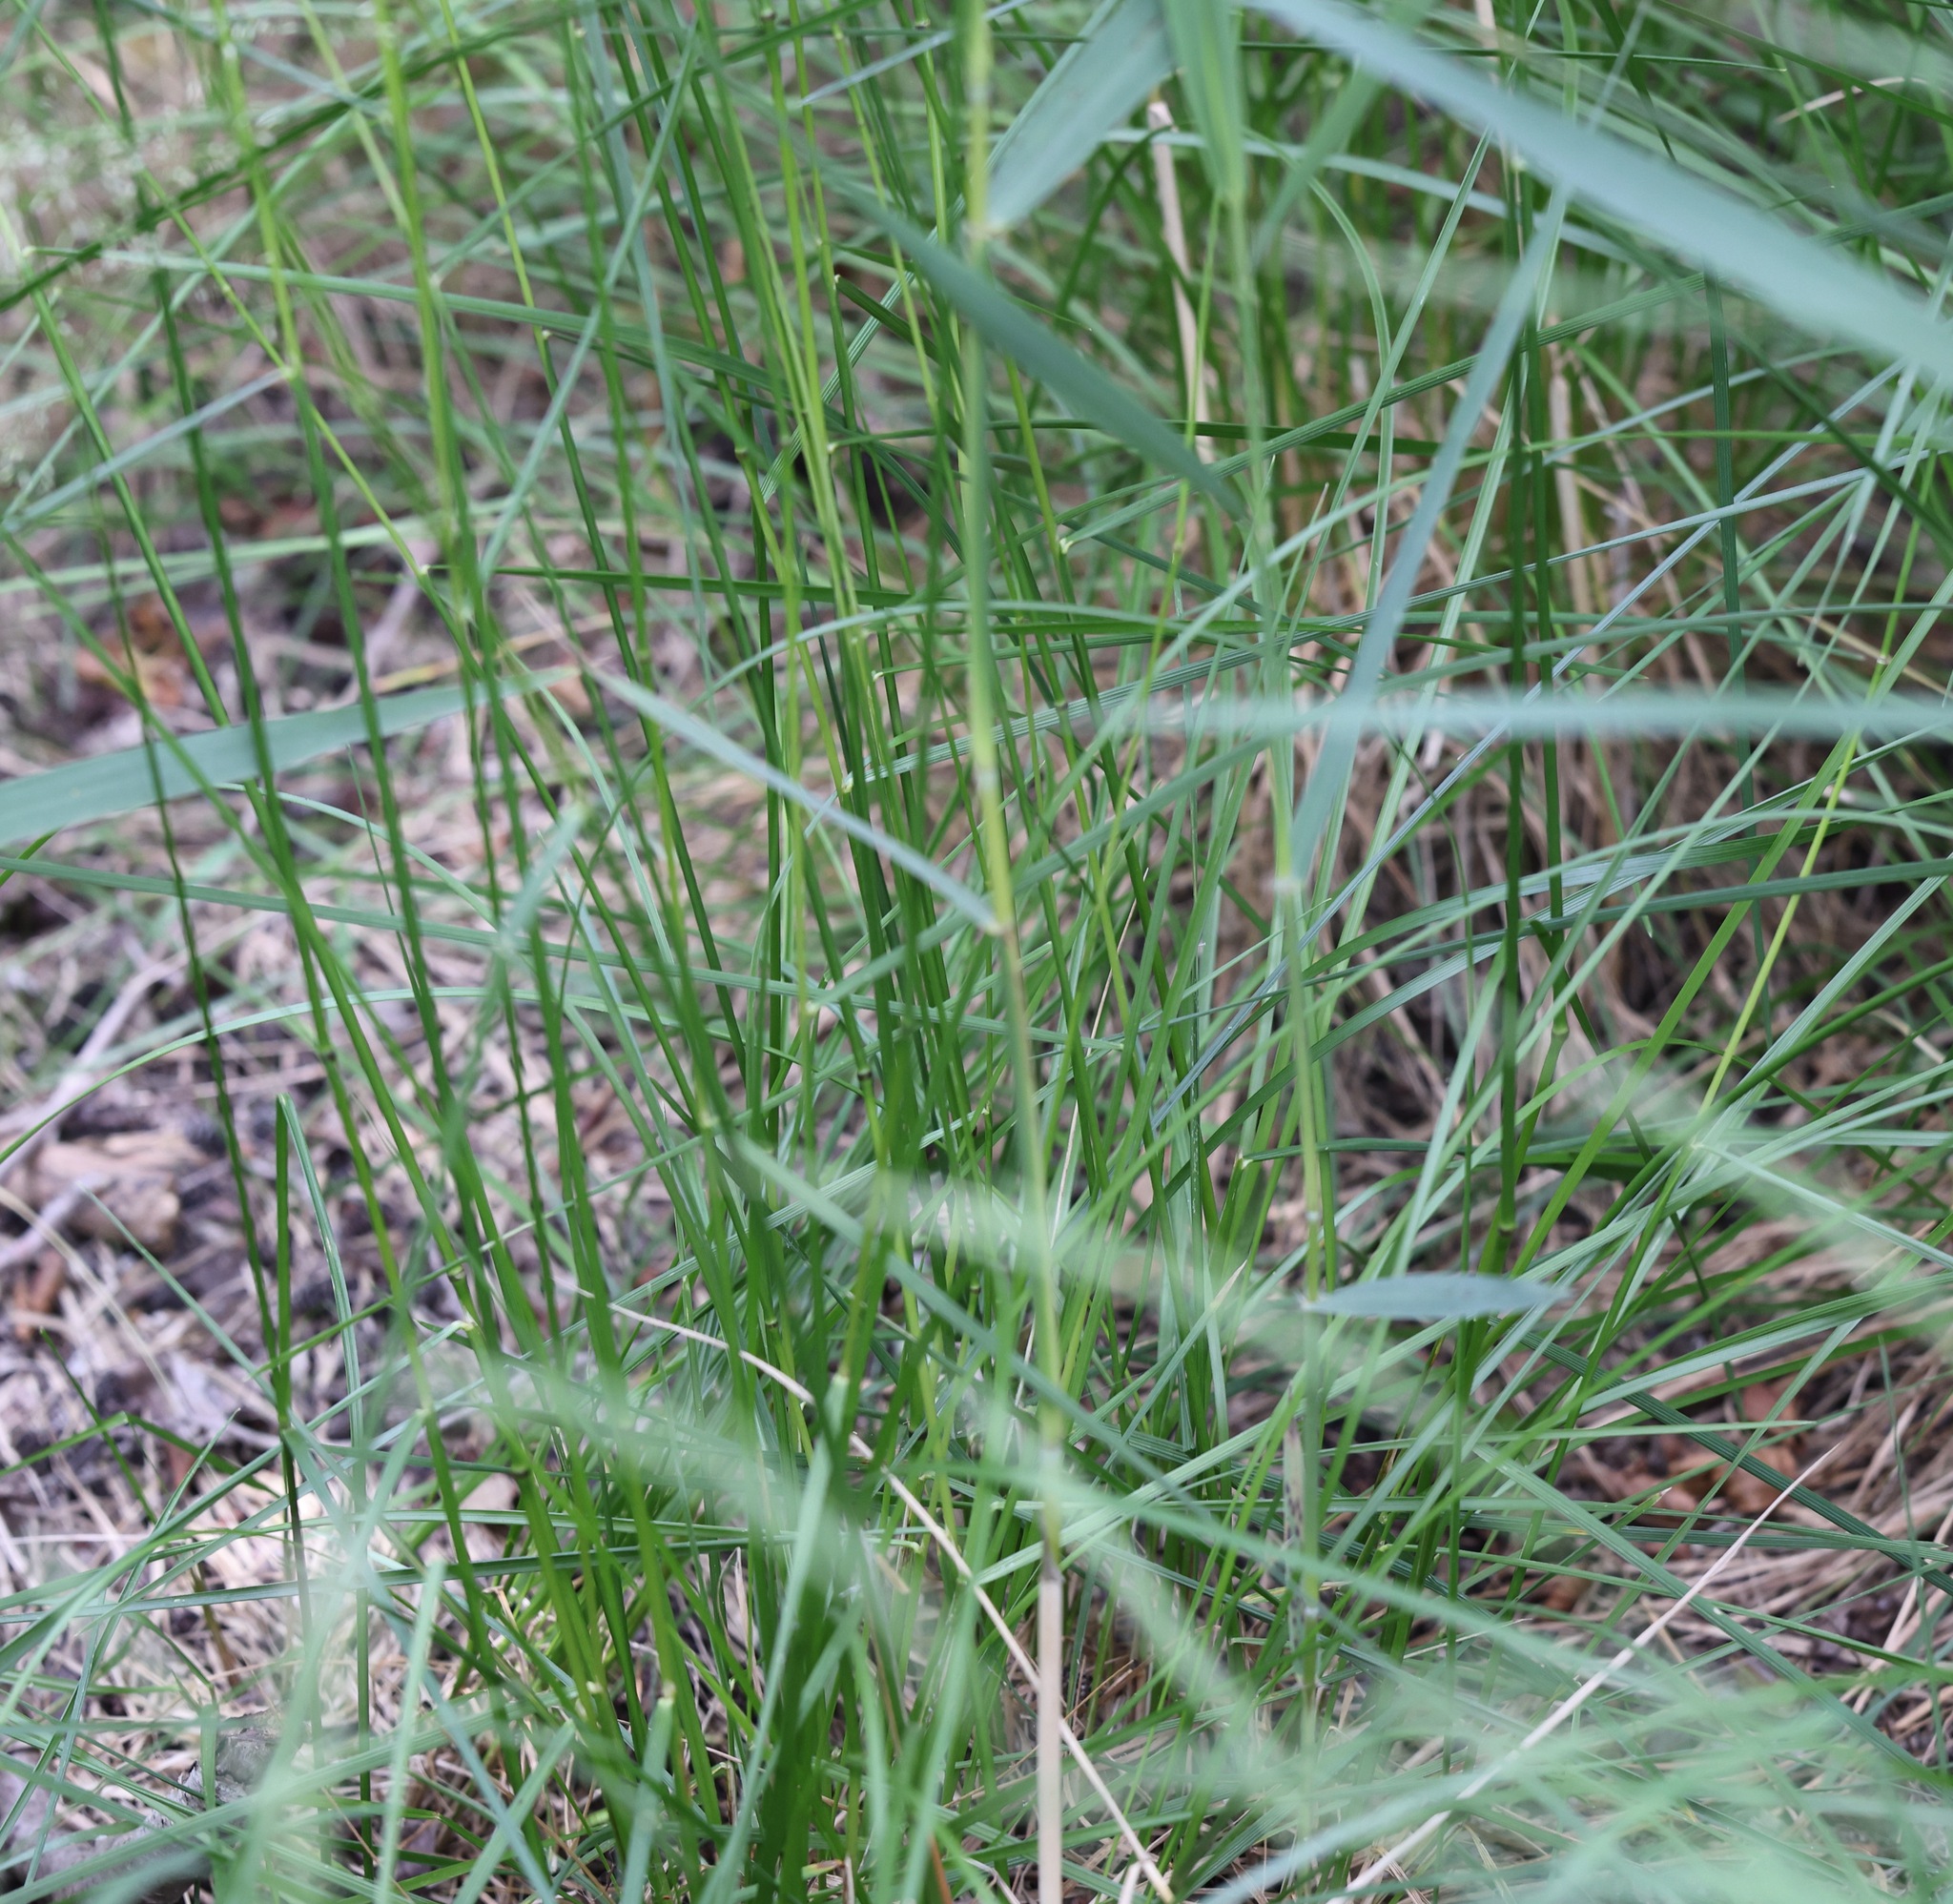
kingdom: Plantae
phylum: Tracheophyta
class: Liliopsida
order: Poales
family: Poaceae
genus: Agrostis
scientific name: Agrostis capillaris
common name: Colonial bentgrass
